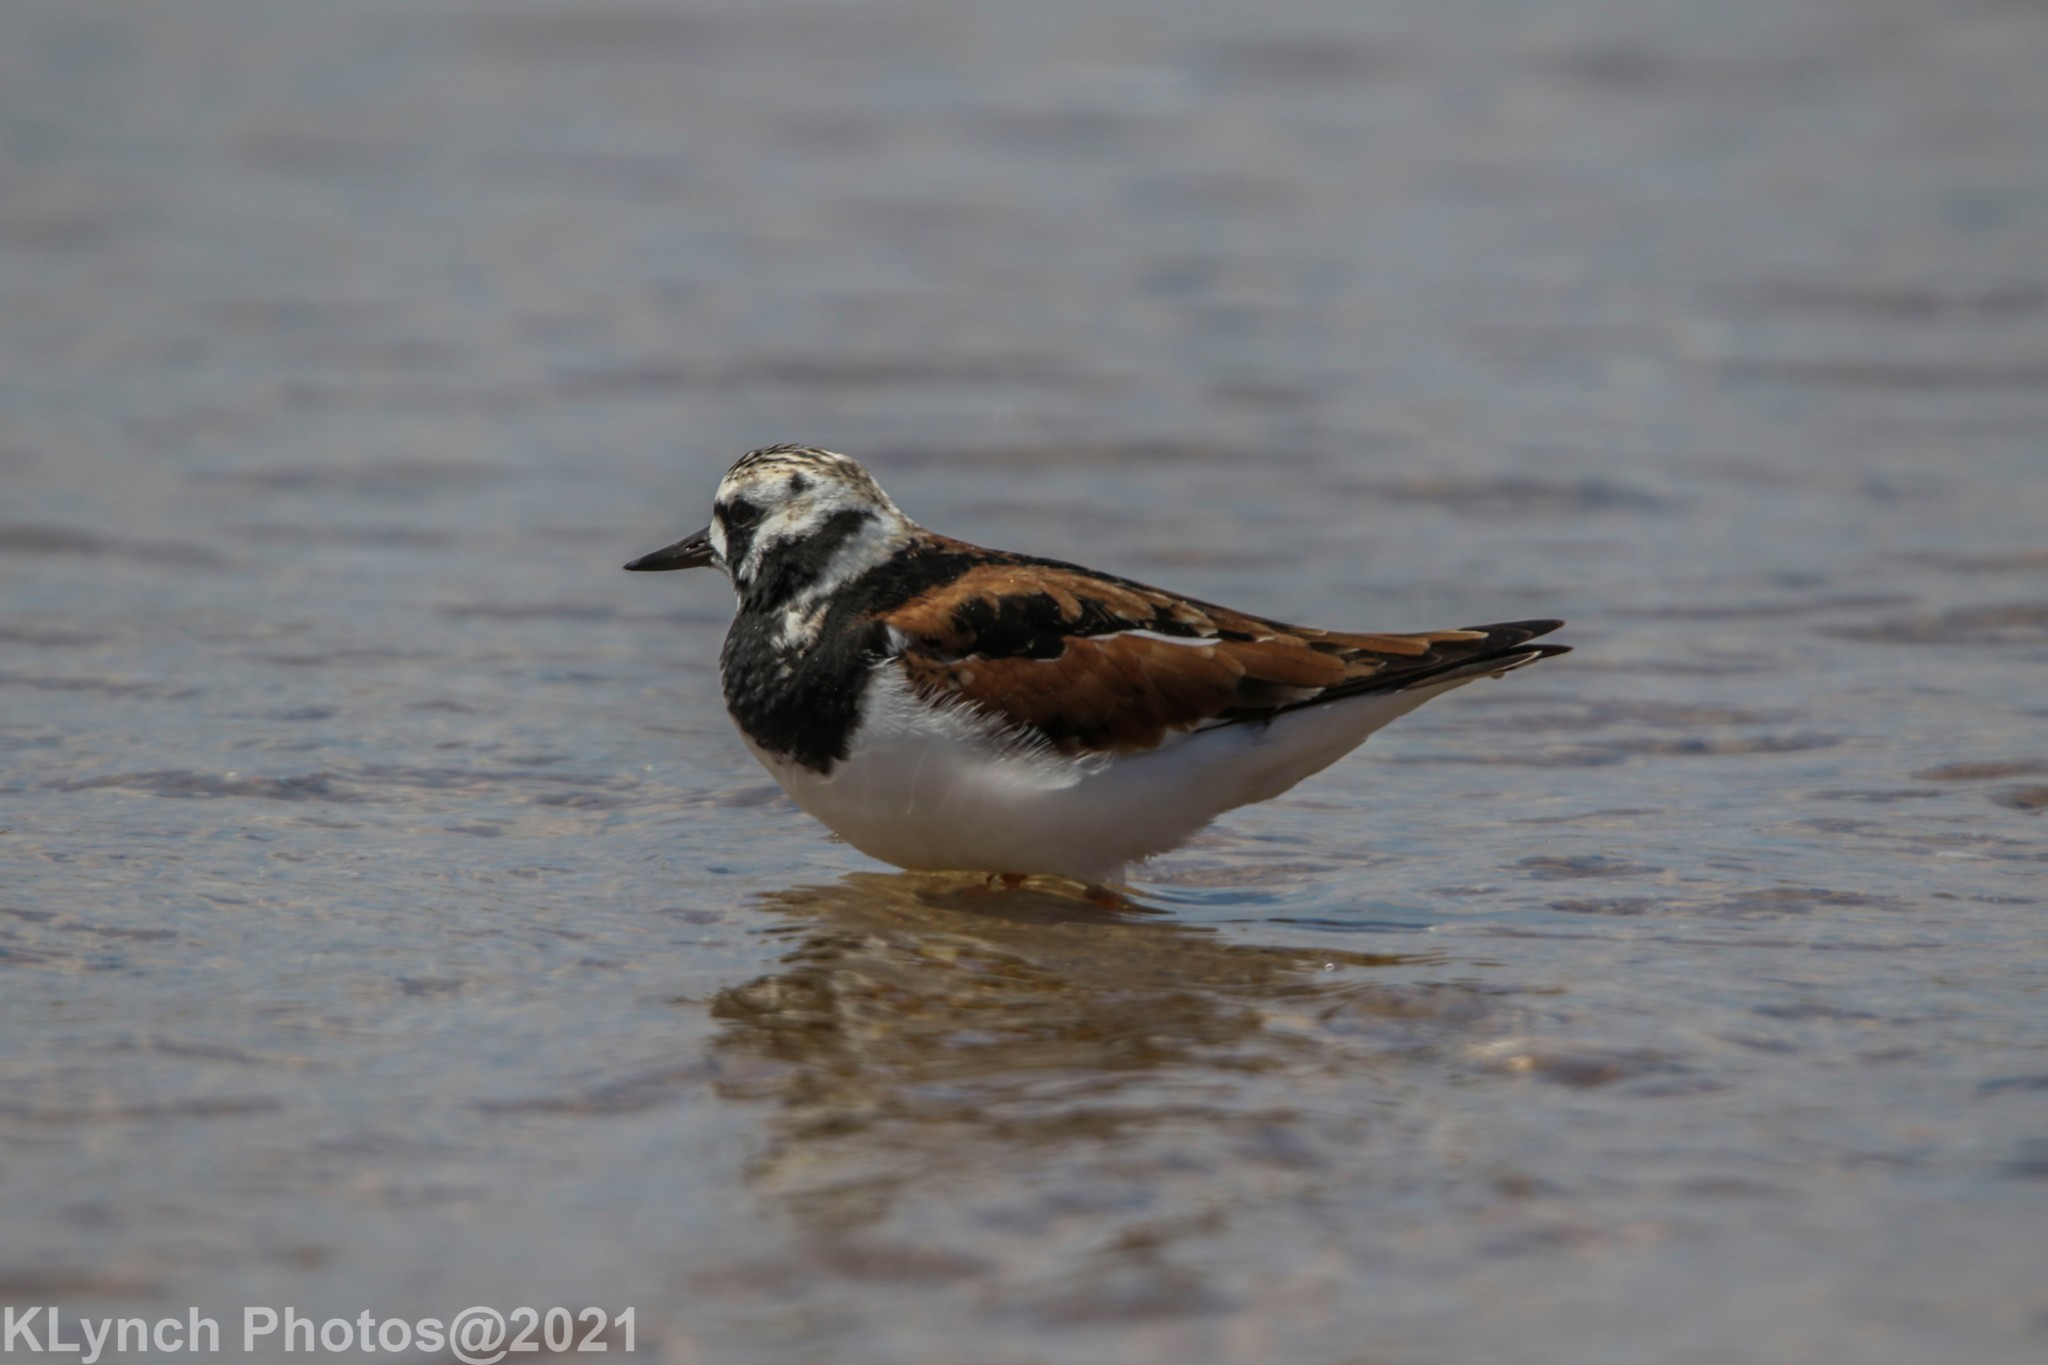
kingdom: Animalia
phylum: Chordata
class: Aves
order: Charadriiformes
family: Scolopacidae
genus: Arenaria
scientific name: Arenaria interpres
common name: Ruddy turnstone
